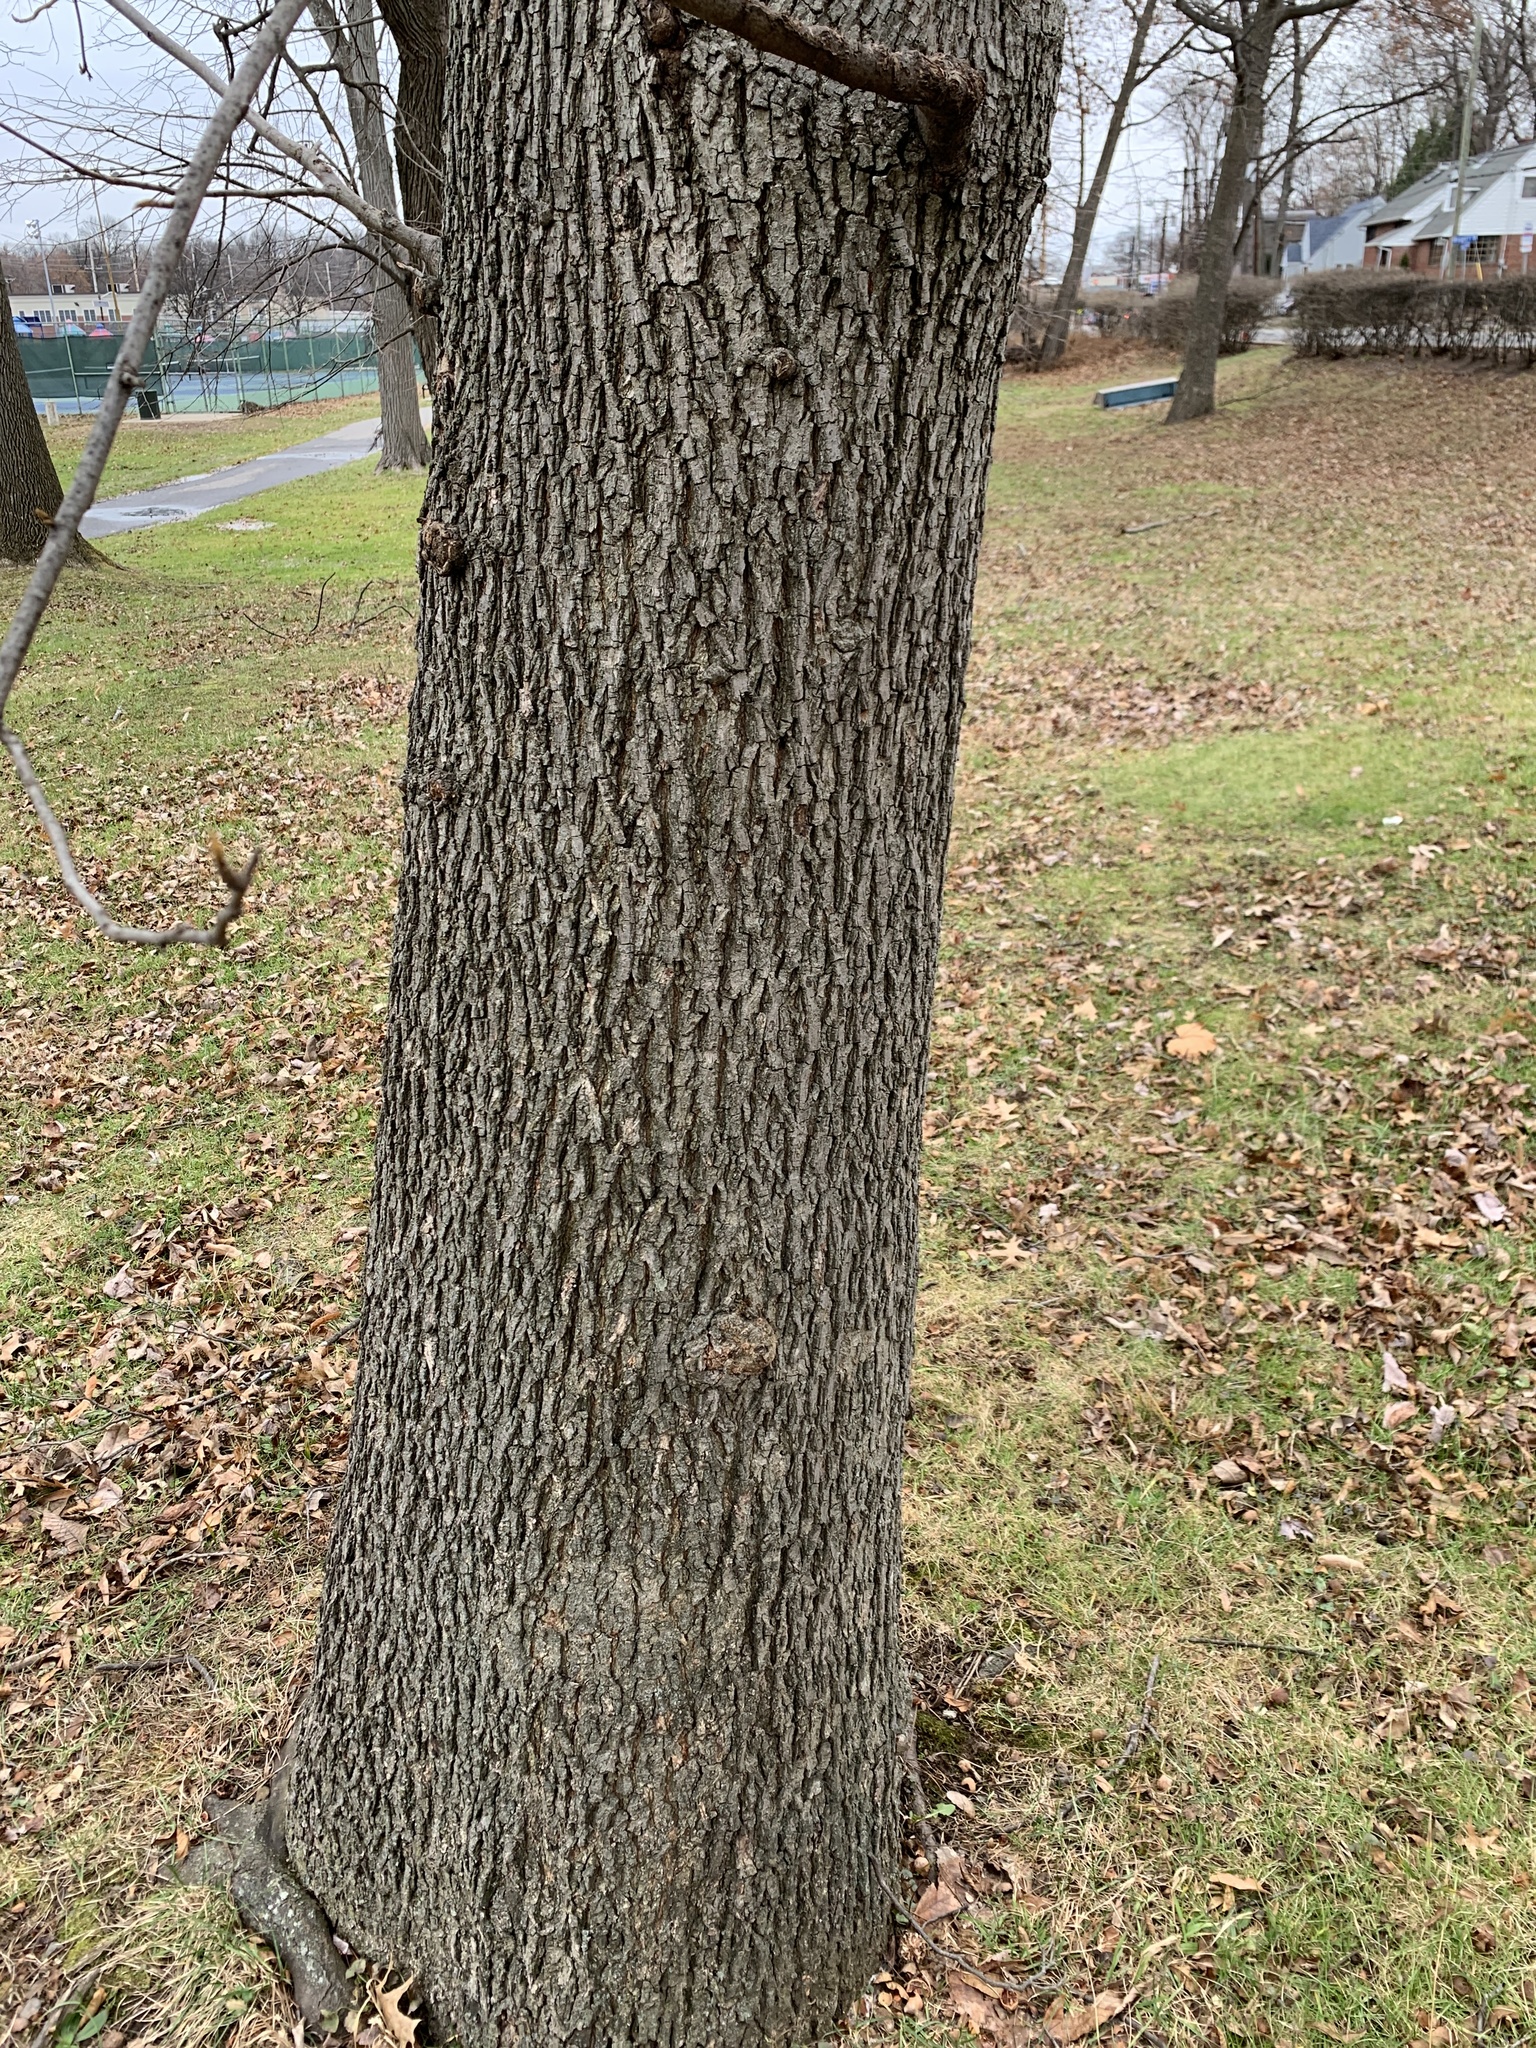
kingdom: Plantae
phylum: Tracheophyta
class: Magnoliopsida
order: Fagales
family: Juglandaceae
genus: Carya
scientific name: Carya cordiformis
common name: Bitternut hickory
